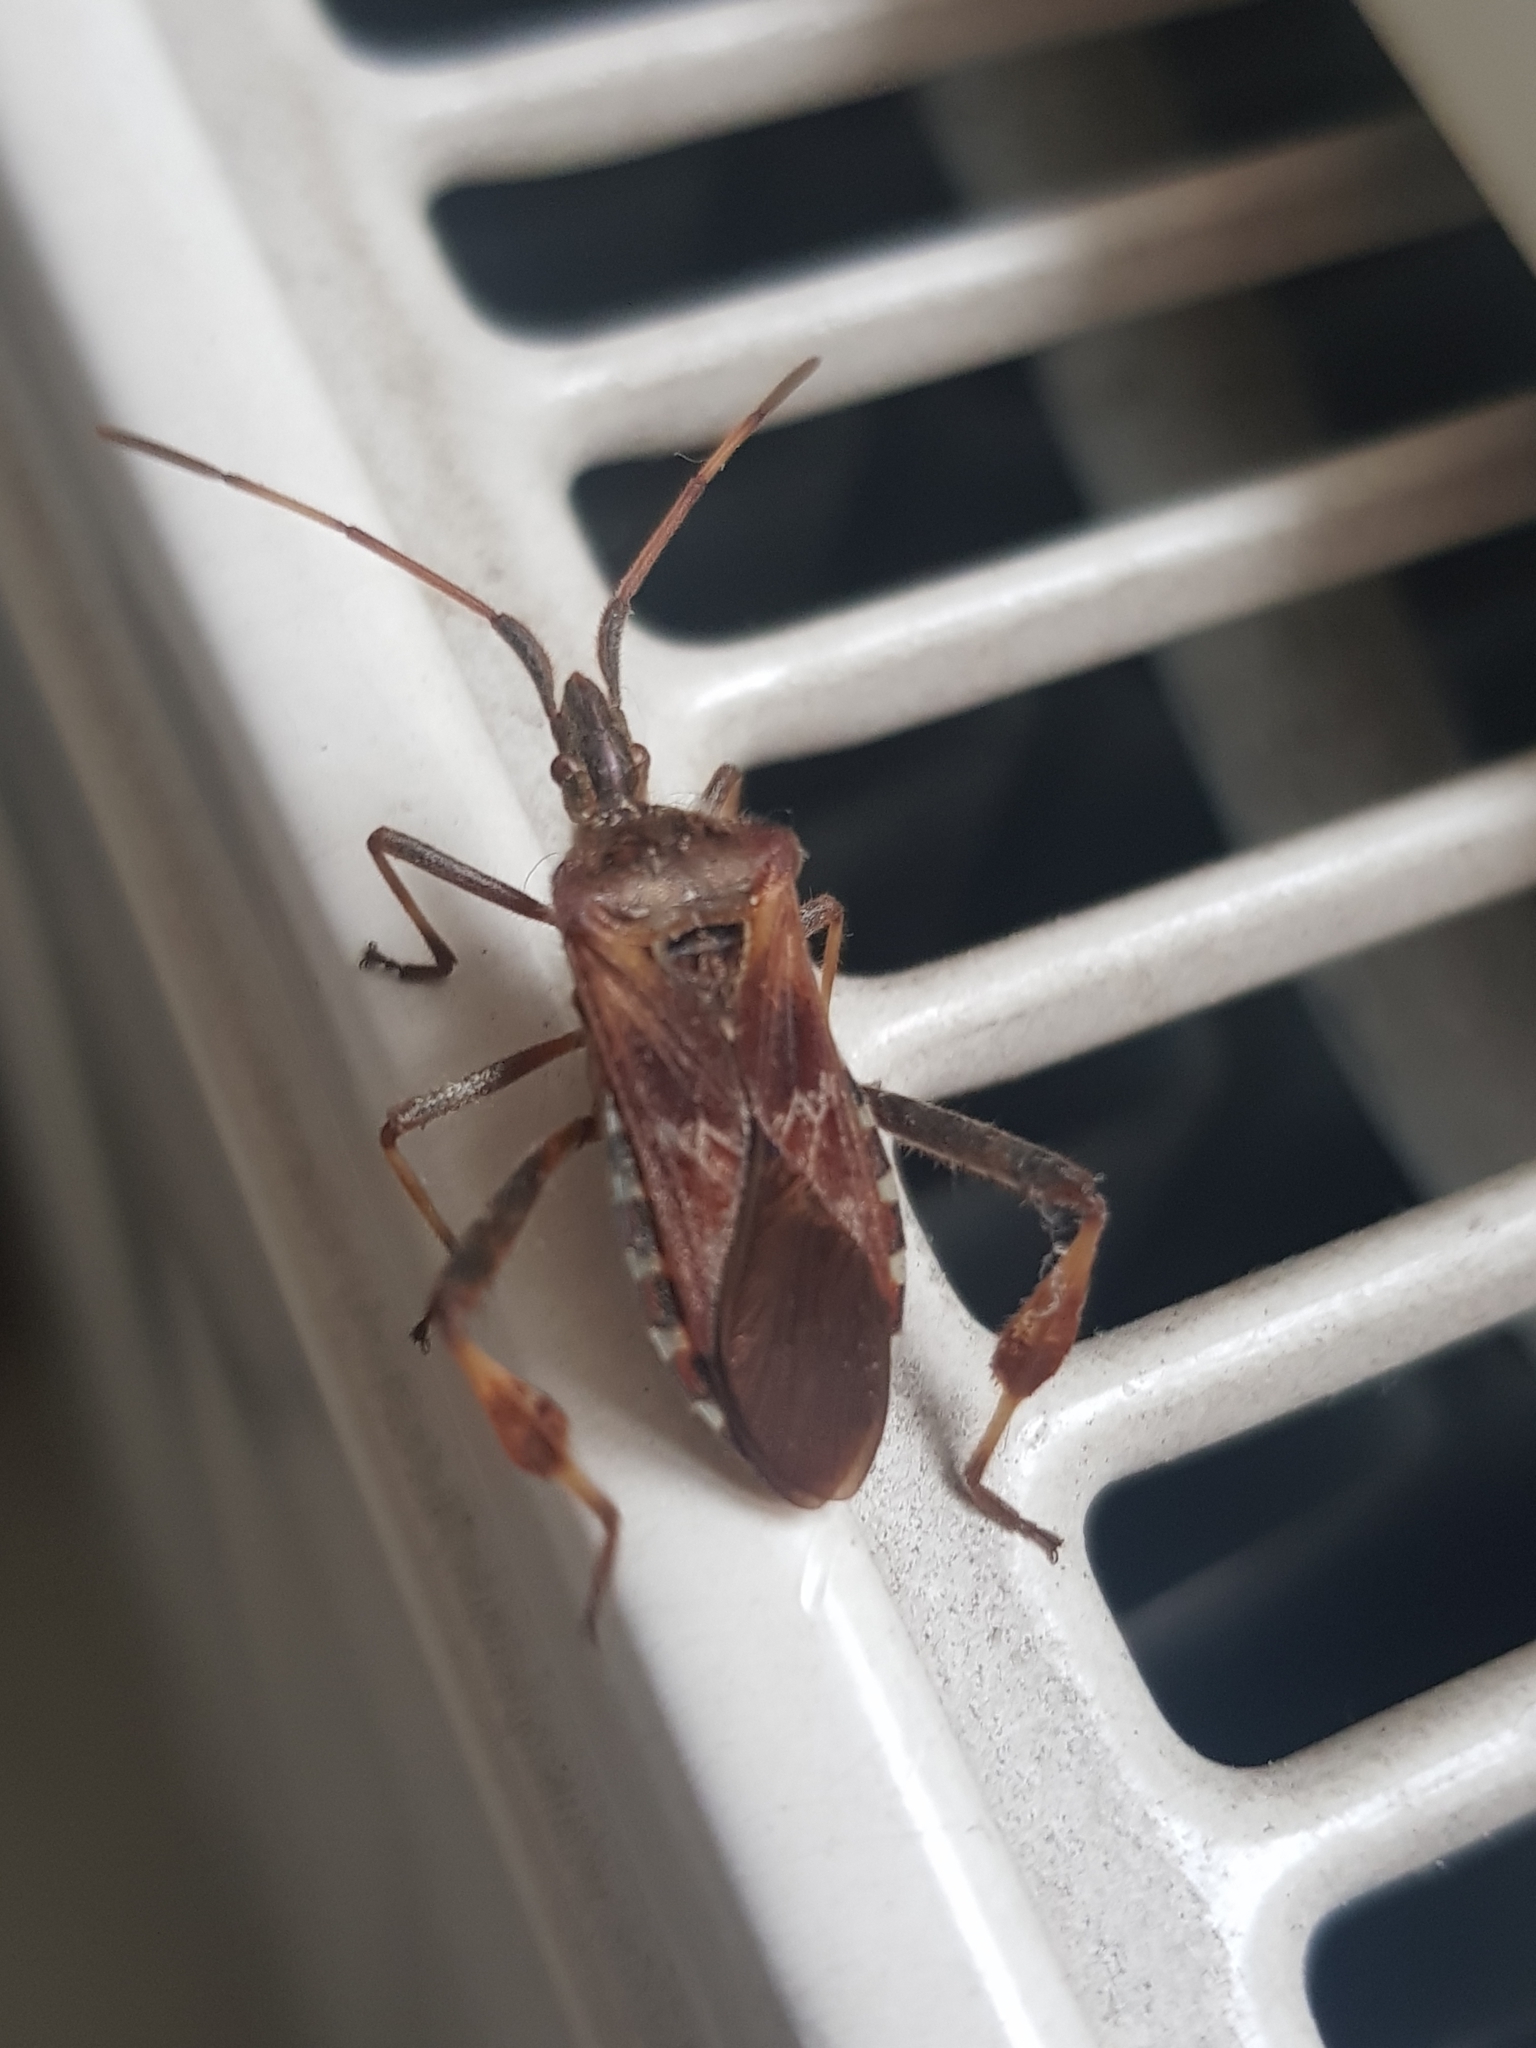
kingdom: Animalia
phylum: Arthropoda
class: Insecta
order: Hemiptera
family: Coreidae
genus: Leptoglossus
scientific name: Leptoglossus occidentalis
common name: Western conifer-seed bug
